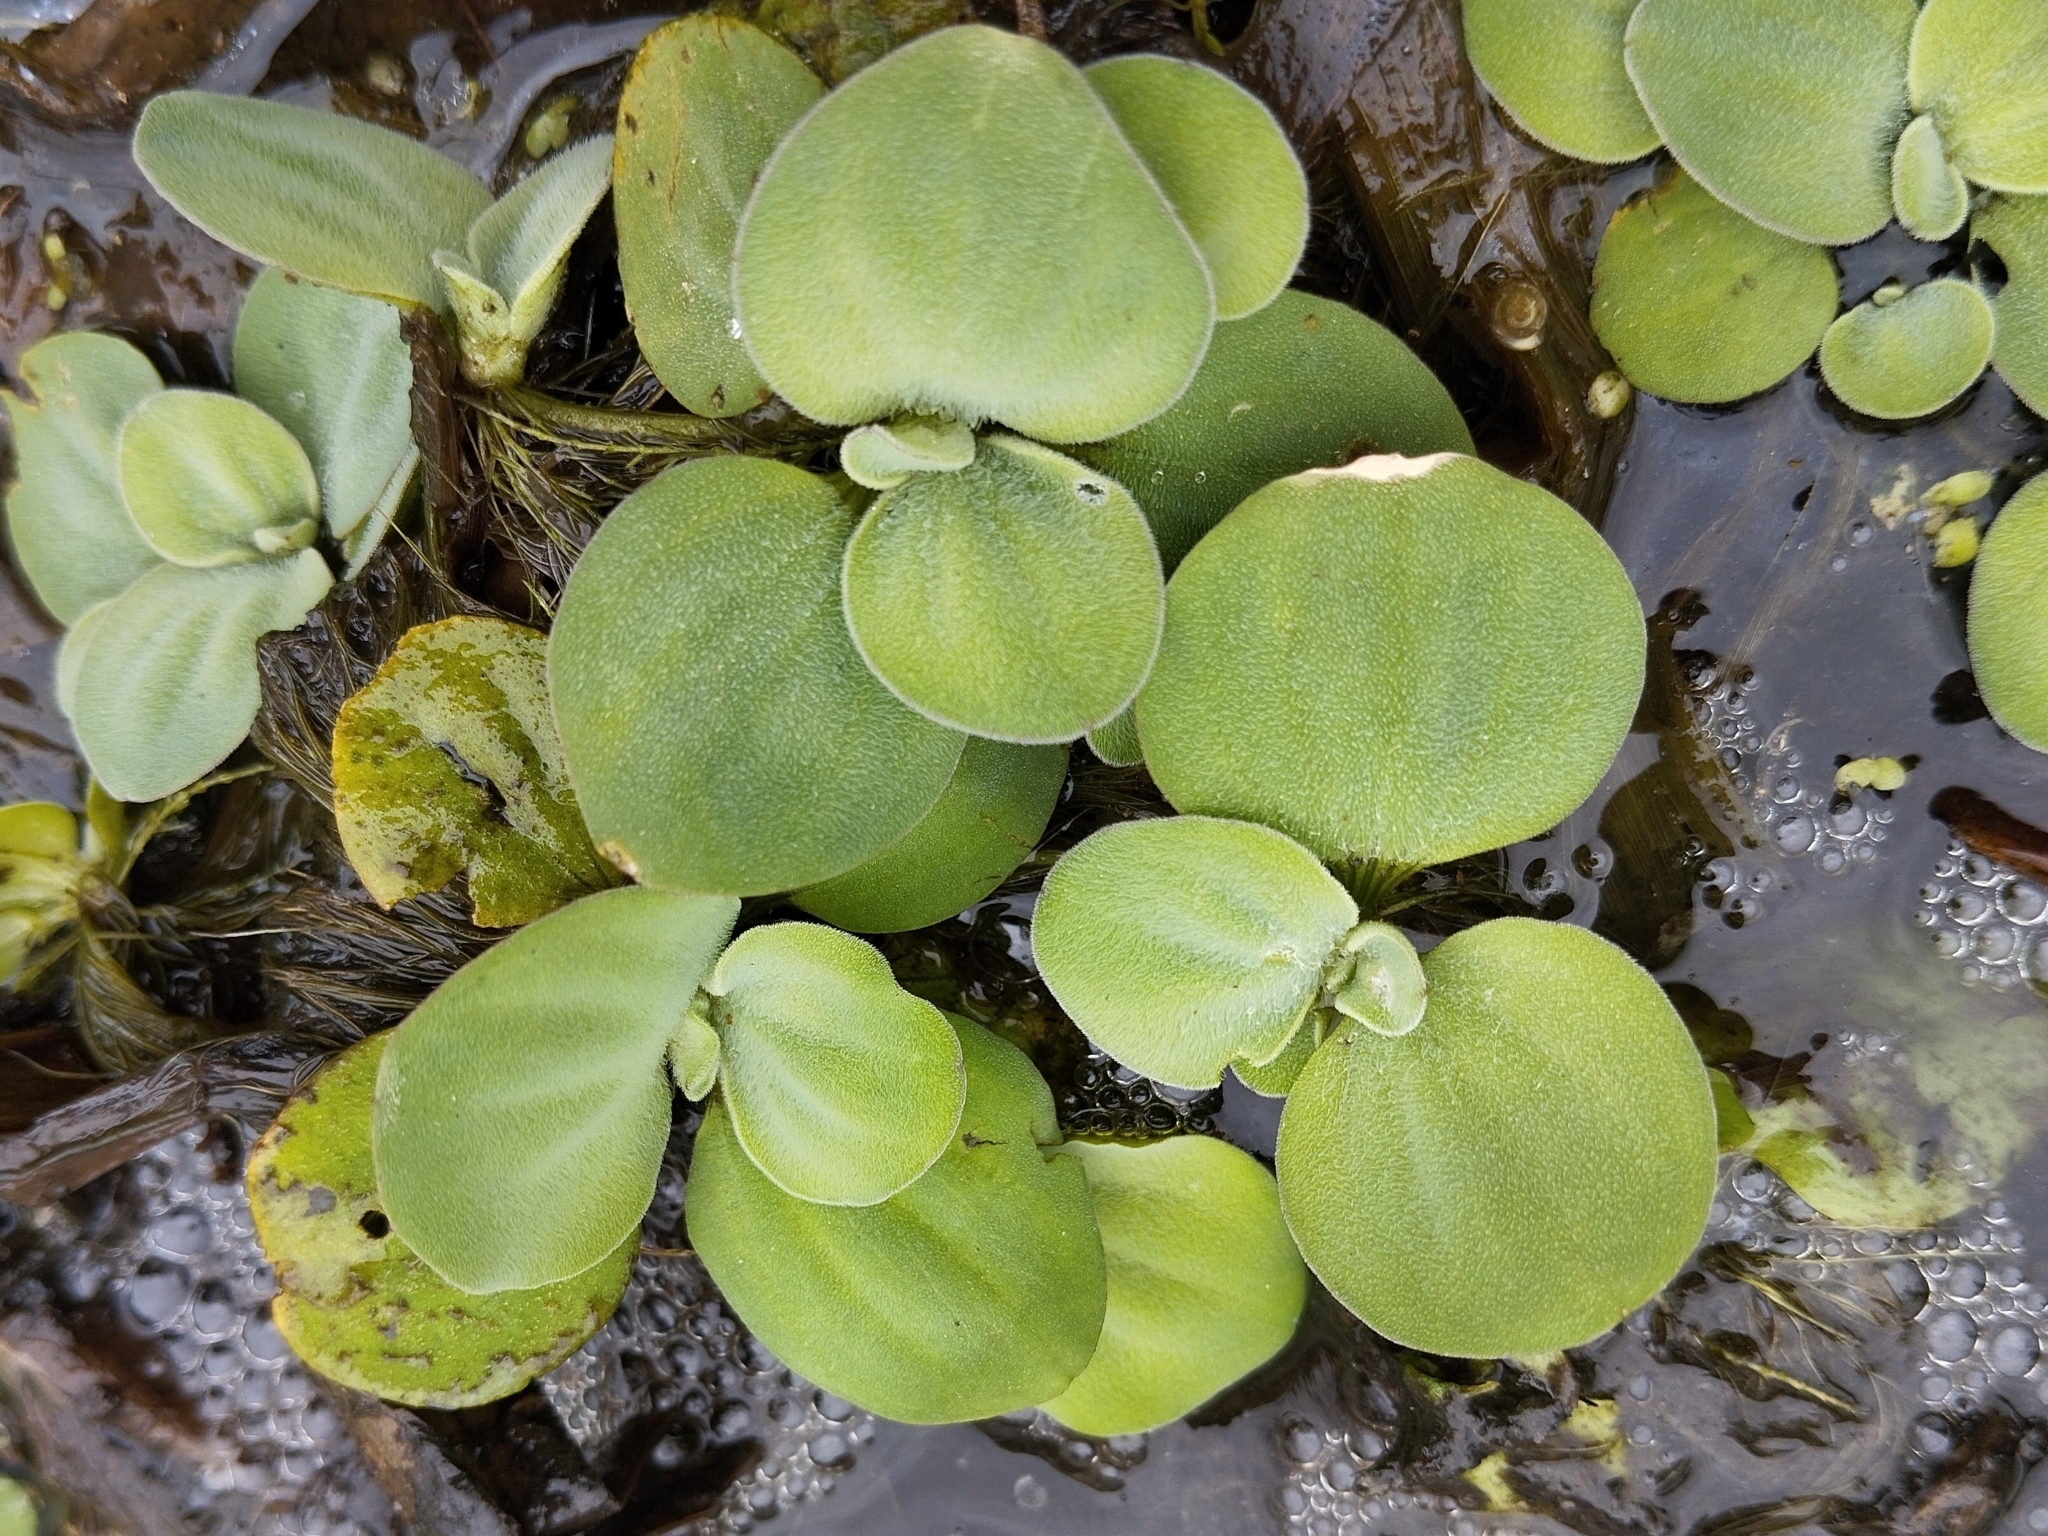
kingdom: Plantae
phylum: Tracheophyta
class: Liliopsida
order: Alismatales
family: Araceae
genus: Pistia
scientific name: Pistia stratiotes
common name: Water lettuce
